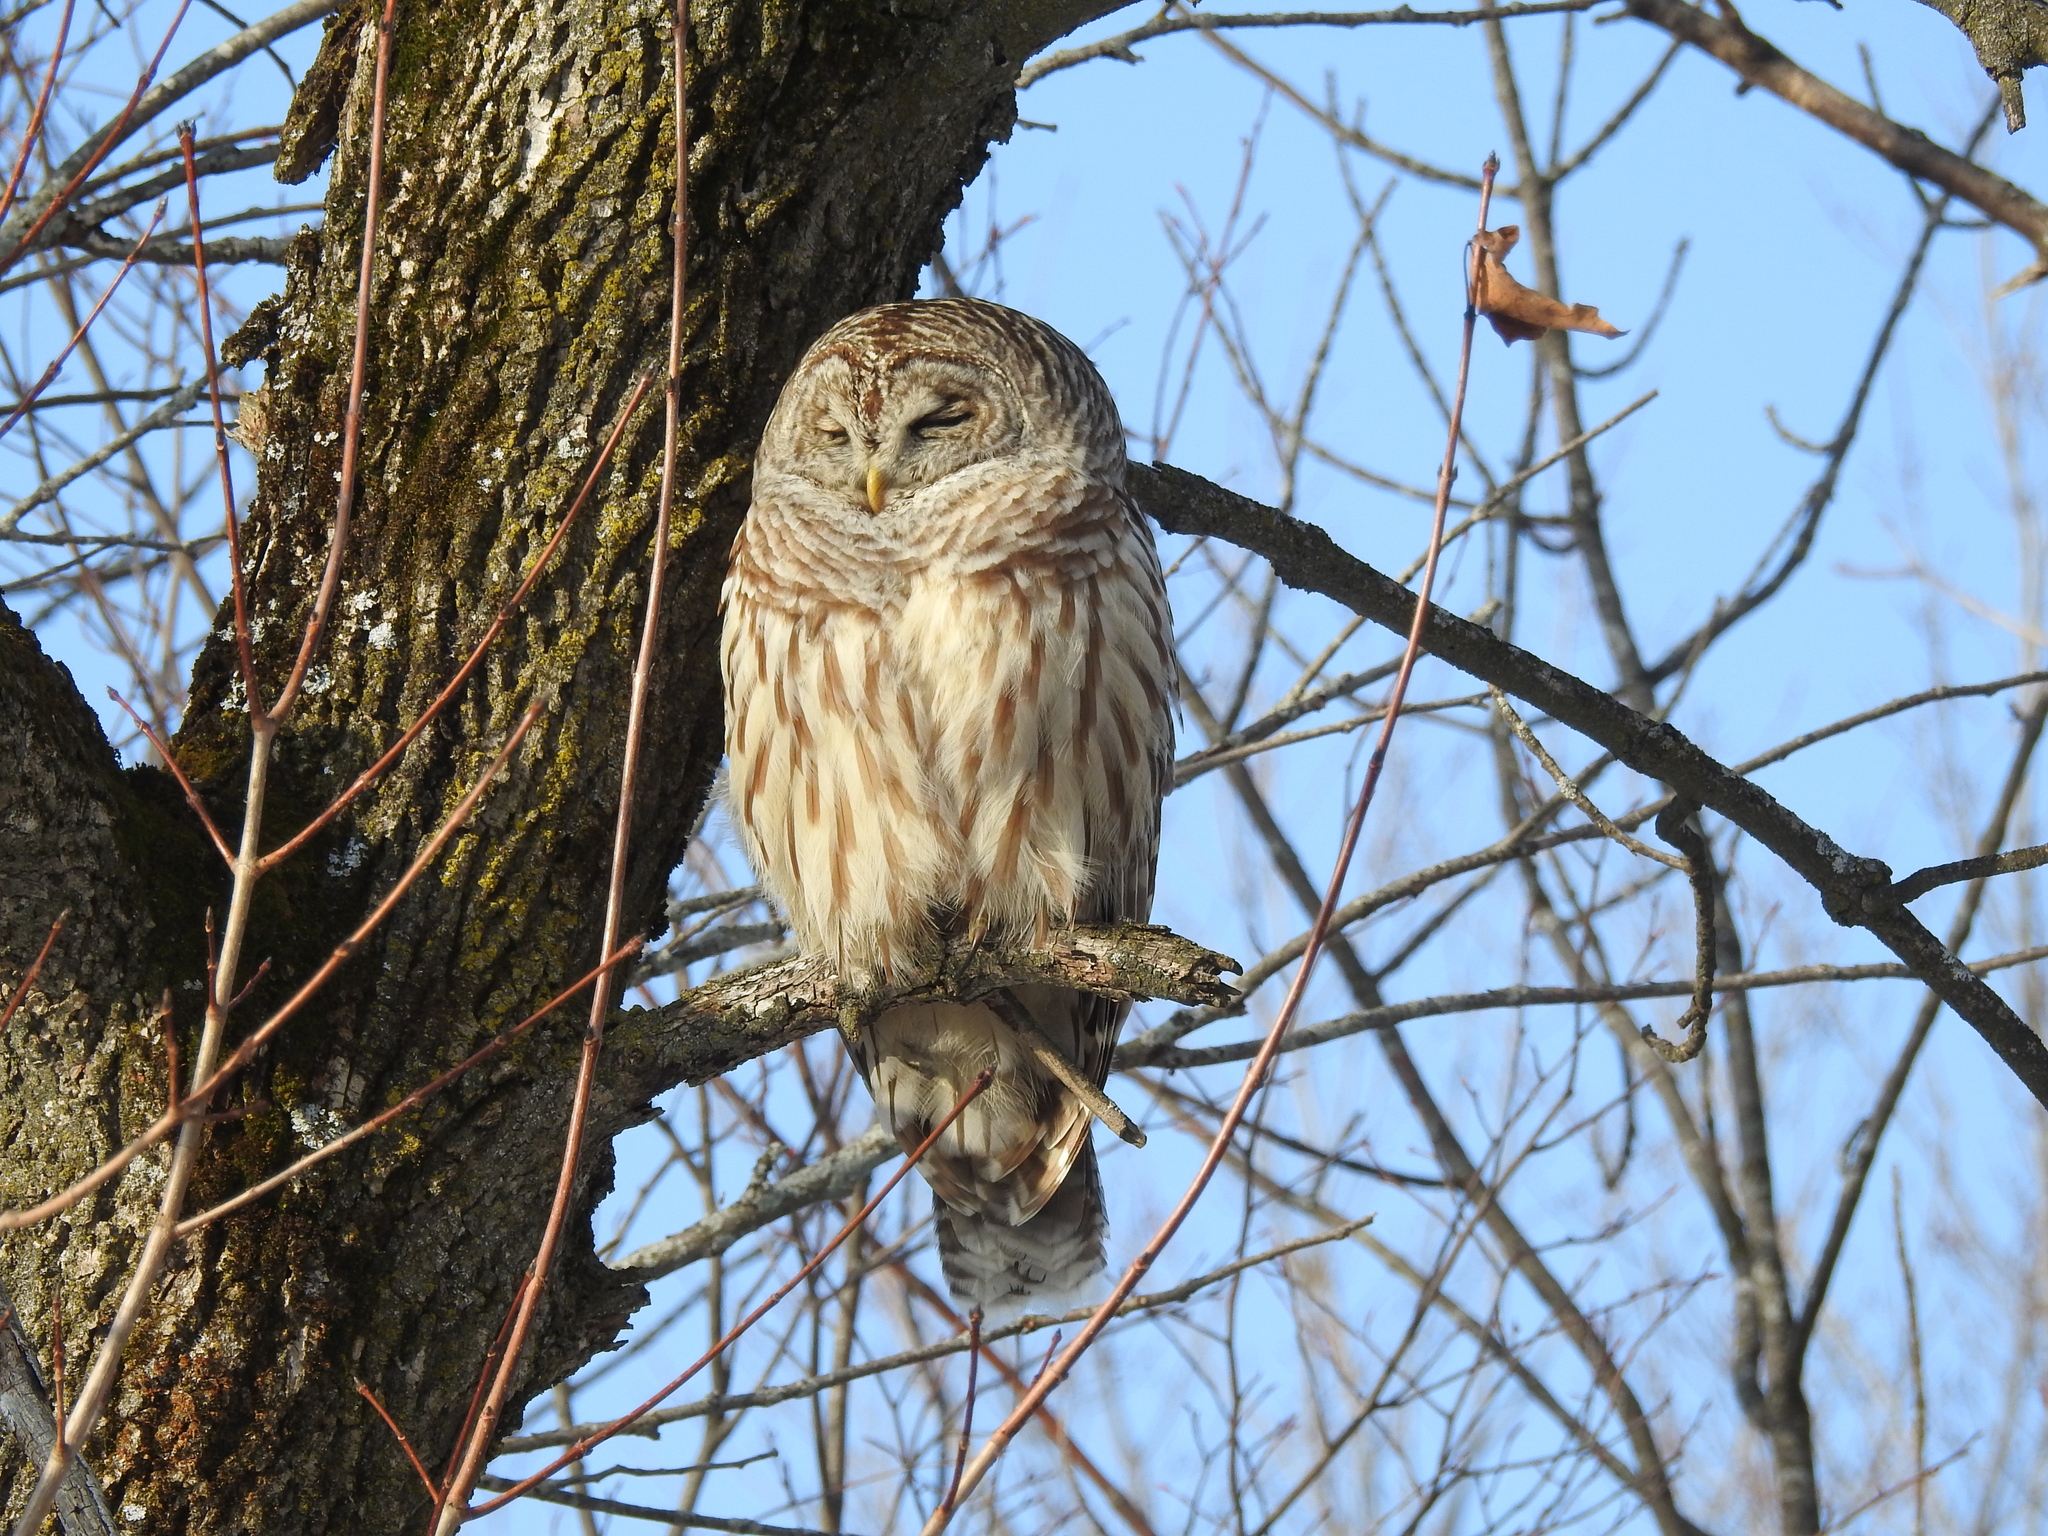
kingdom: Animalia
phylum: Chordata
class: Aves
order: Strigiformes
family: Strigidae
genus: Strix
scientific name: Strix varia
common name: Barred owl
